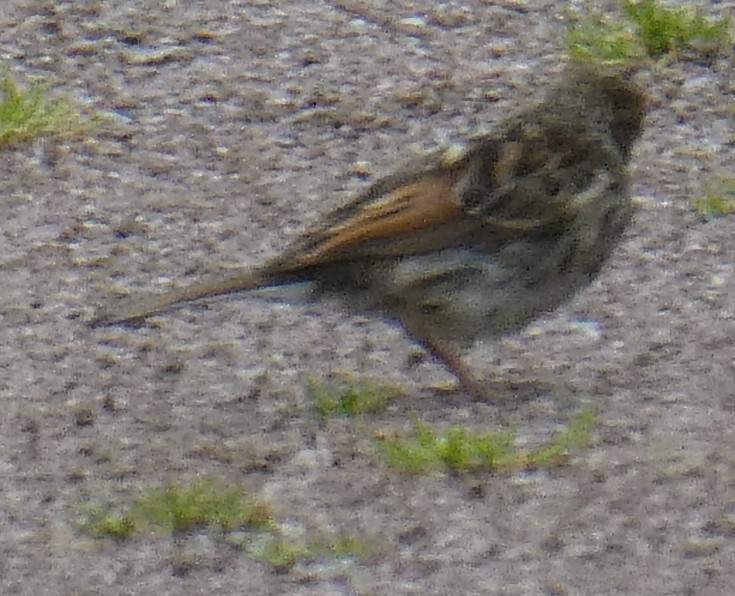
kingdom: Animalia
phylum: Chordata
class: Aves
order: Passeriformes
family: Prunellidae
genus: Prunella
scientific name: Prunella modularis
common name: Dunnock
